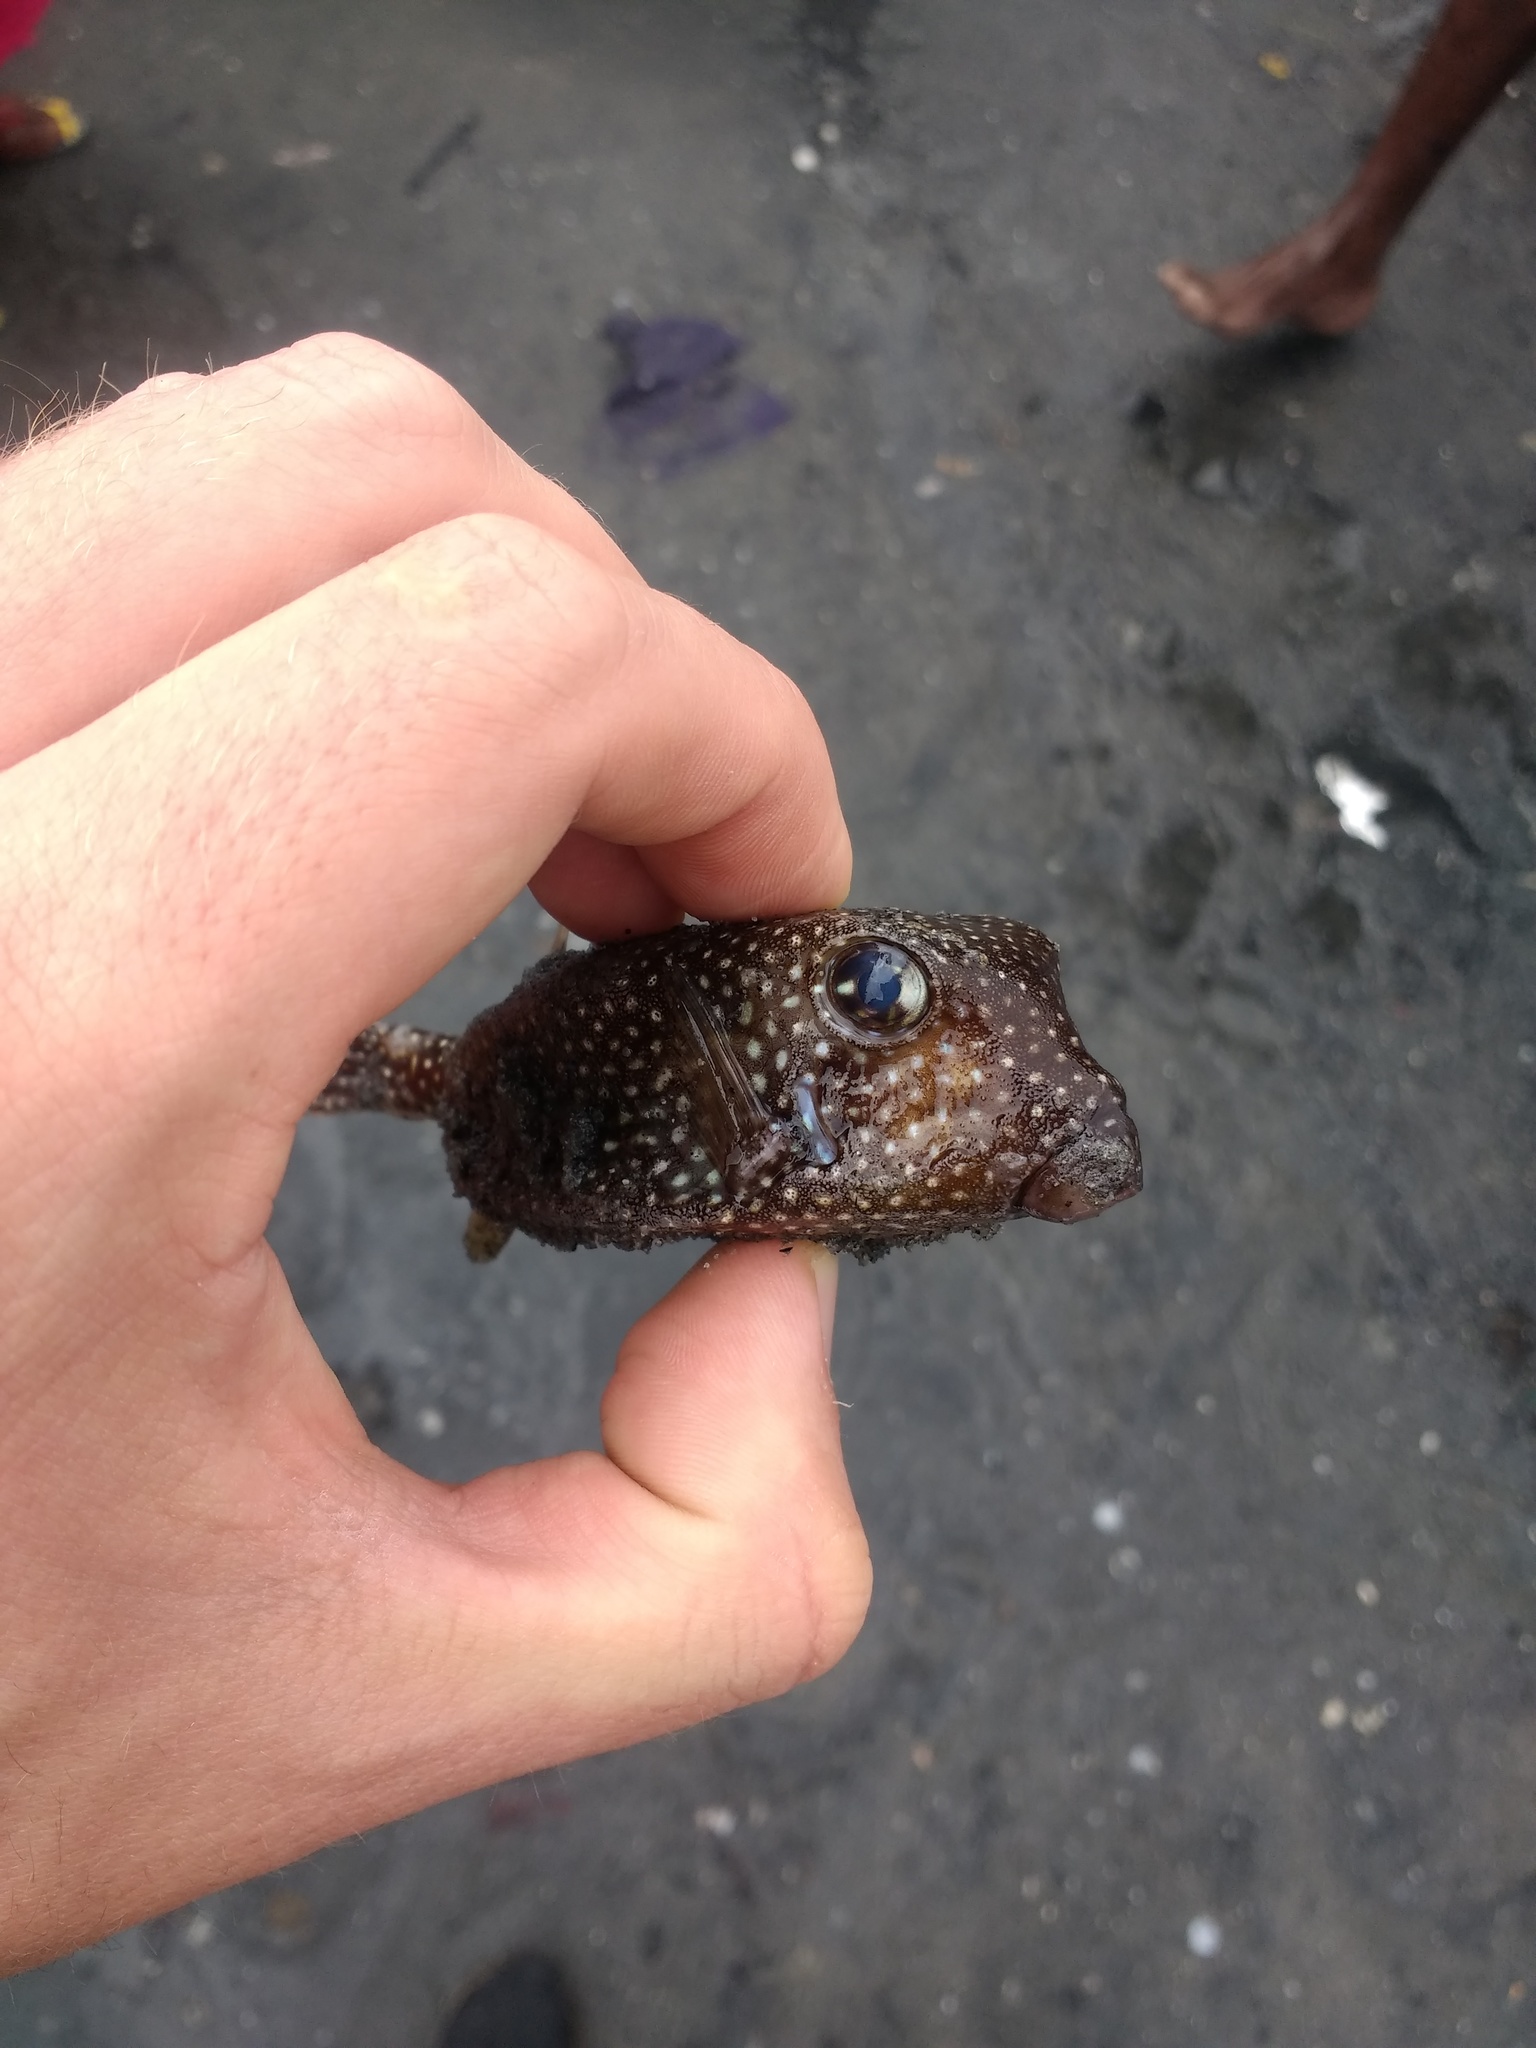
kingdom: Animalia
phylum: Chordata
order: Tetraodontiformes
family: Ostraciidae
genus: Ostracion
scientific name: Ostracion meleagris
